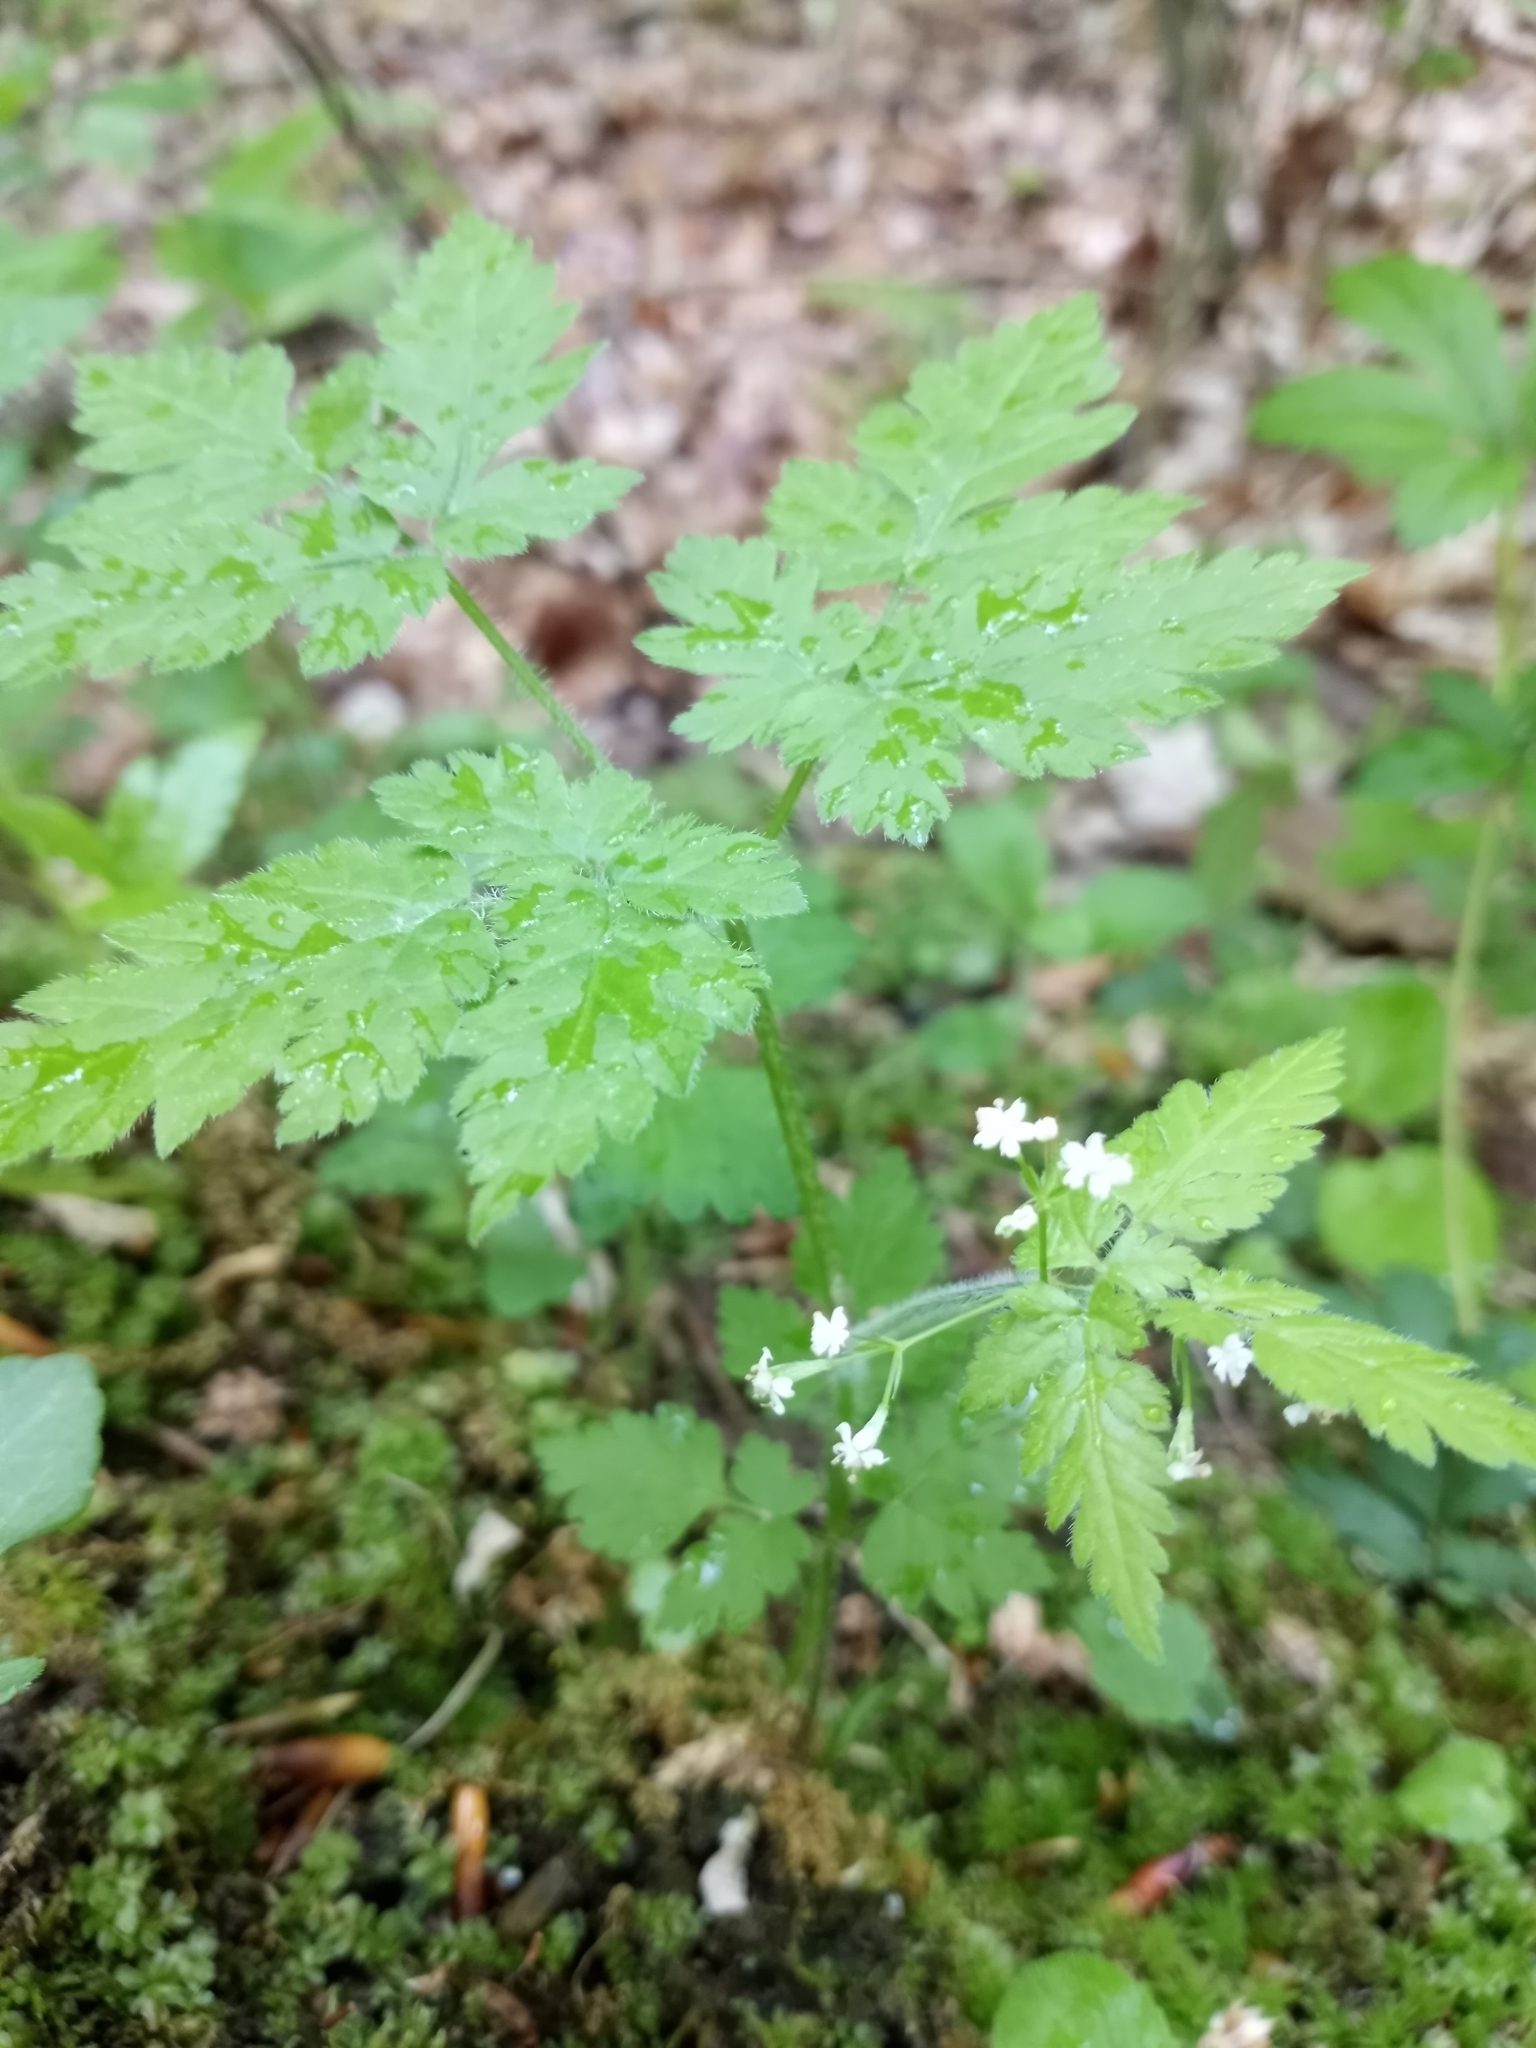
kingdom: Plantae
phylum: Tracheophyta
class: Magnoliopsida
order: Apiales
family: Apiaceae
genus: Osmorhiza
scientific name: Osmorhiza claytonii
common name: Hairy sweet cicely
